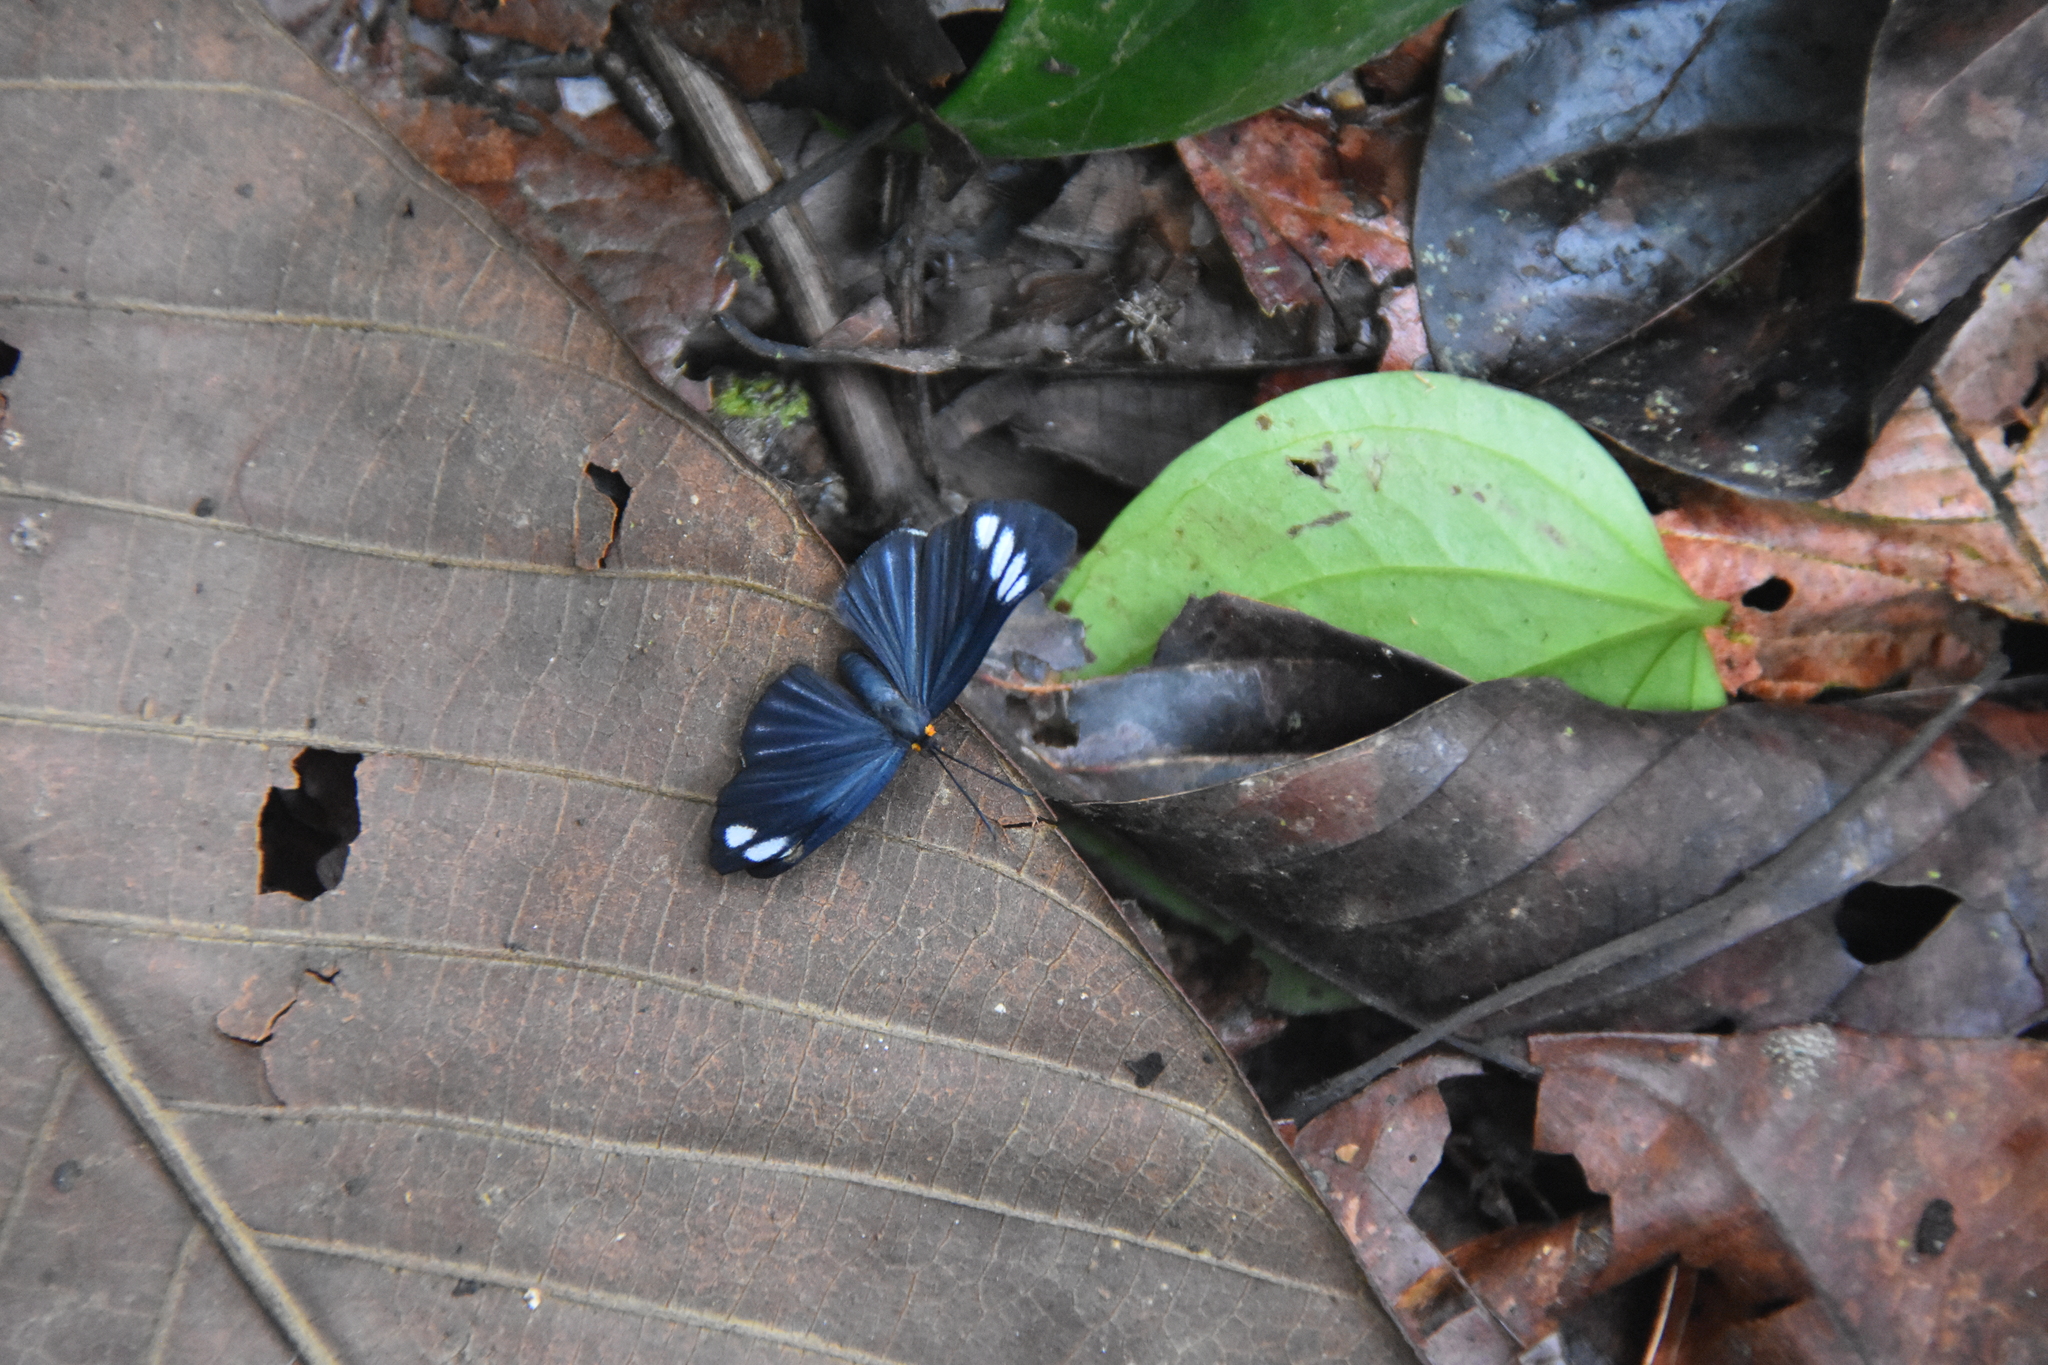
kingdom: Animalia
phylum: Arthropoda
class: Insecta
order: Lepidoptera
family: Riodinidae
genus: Pheles
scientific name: Pheles strigosa
